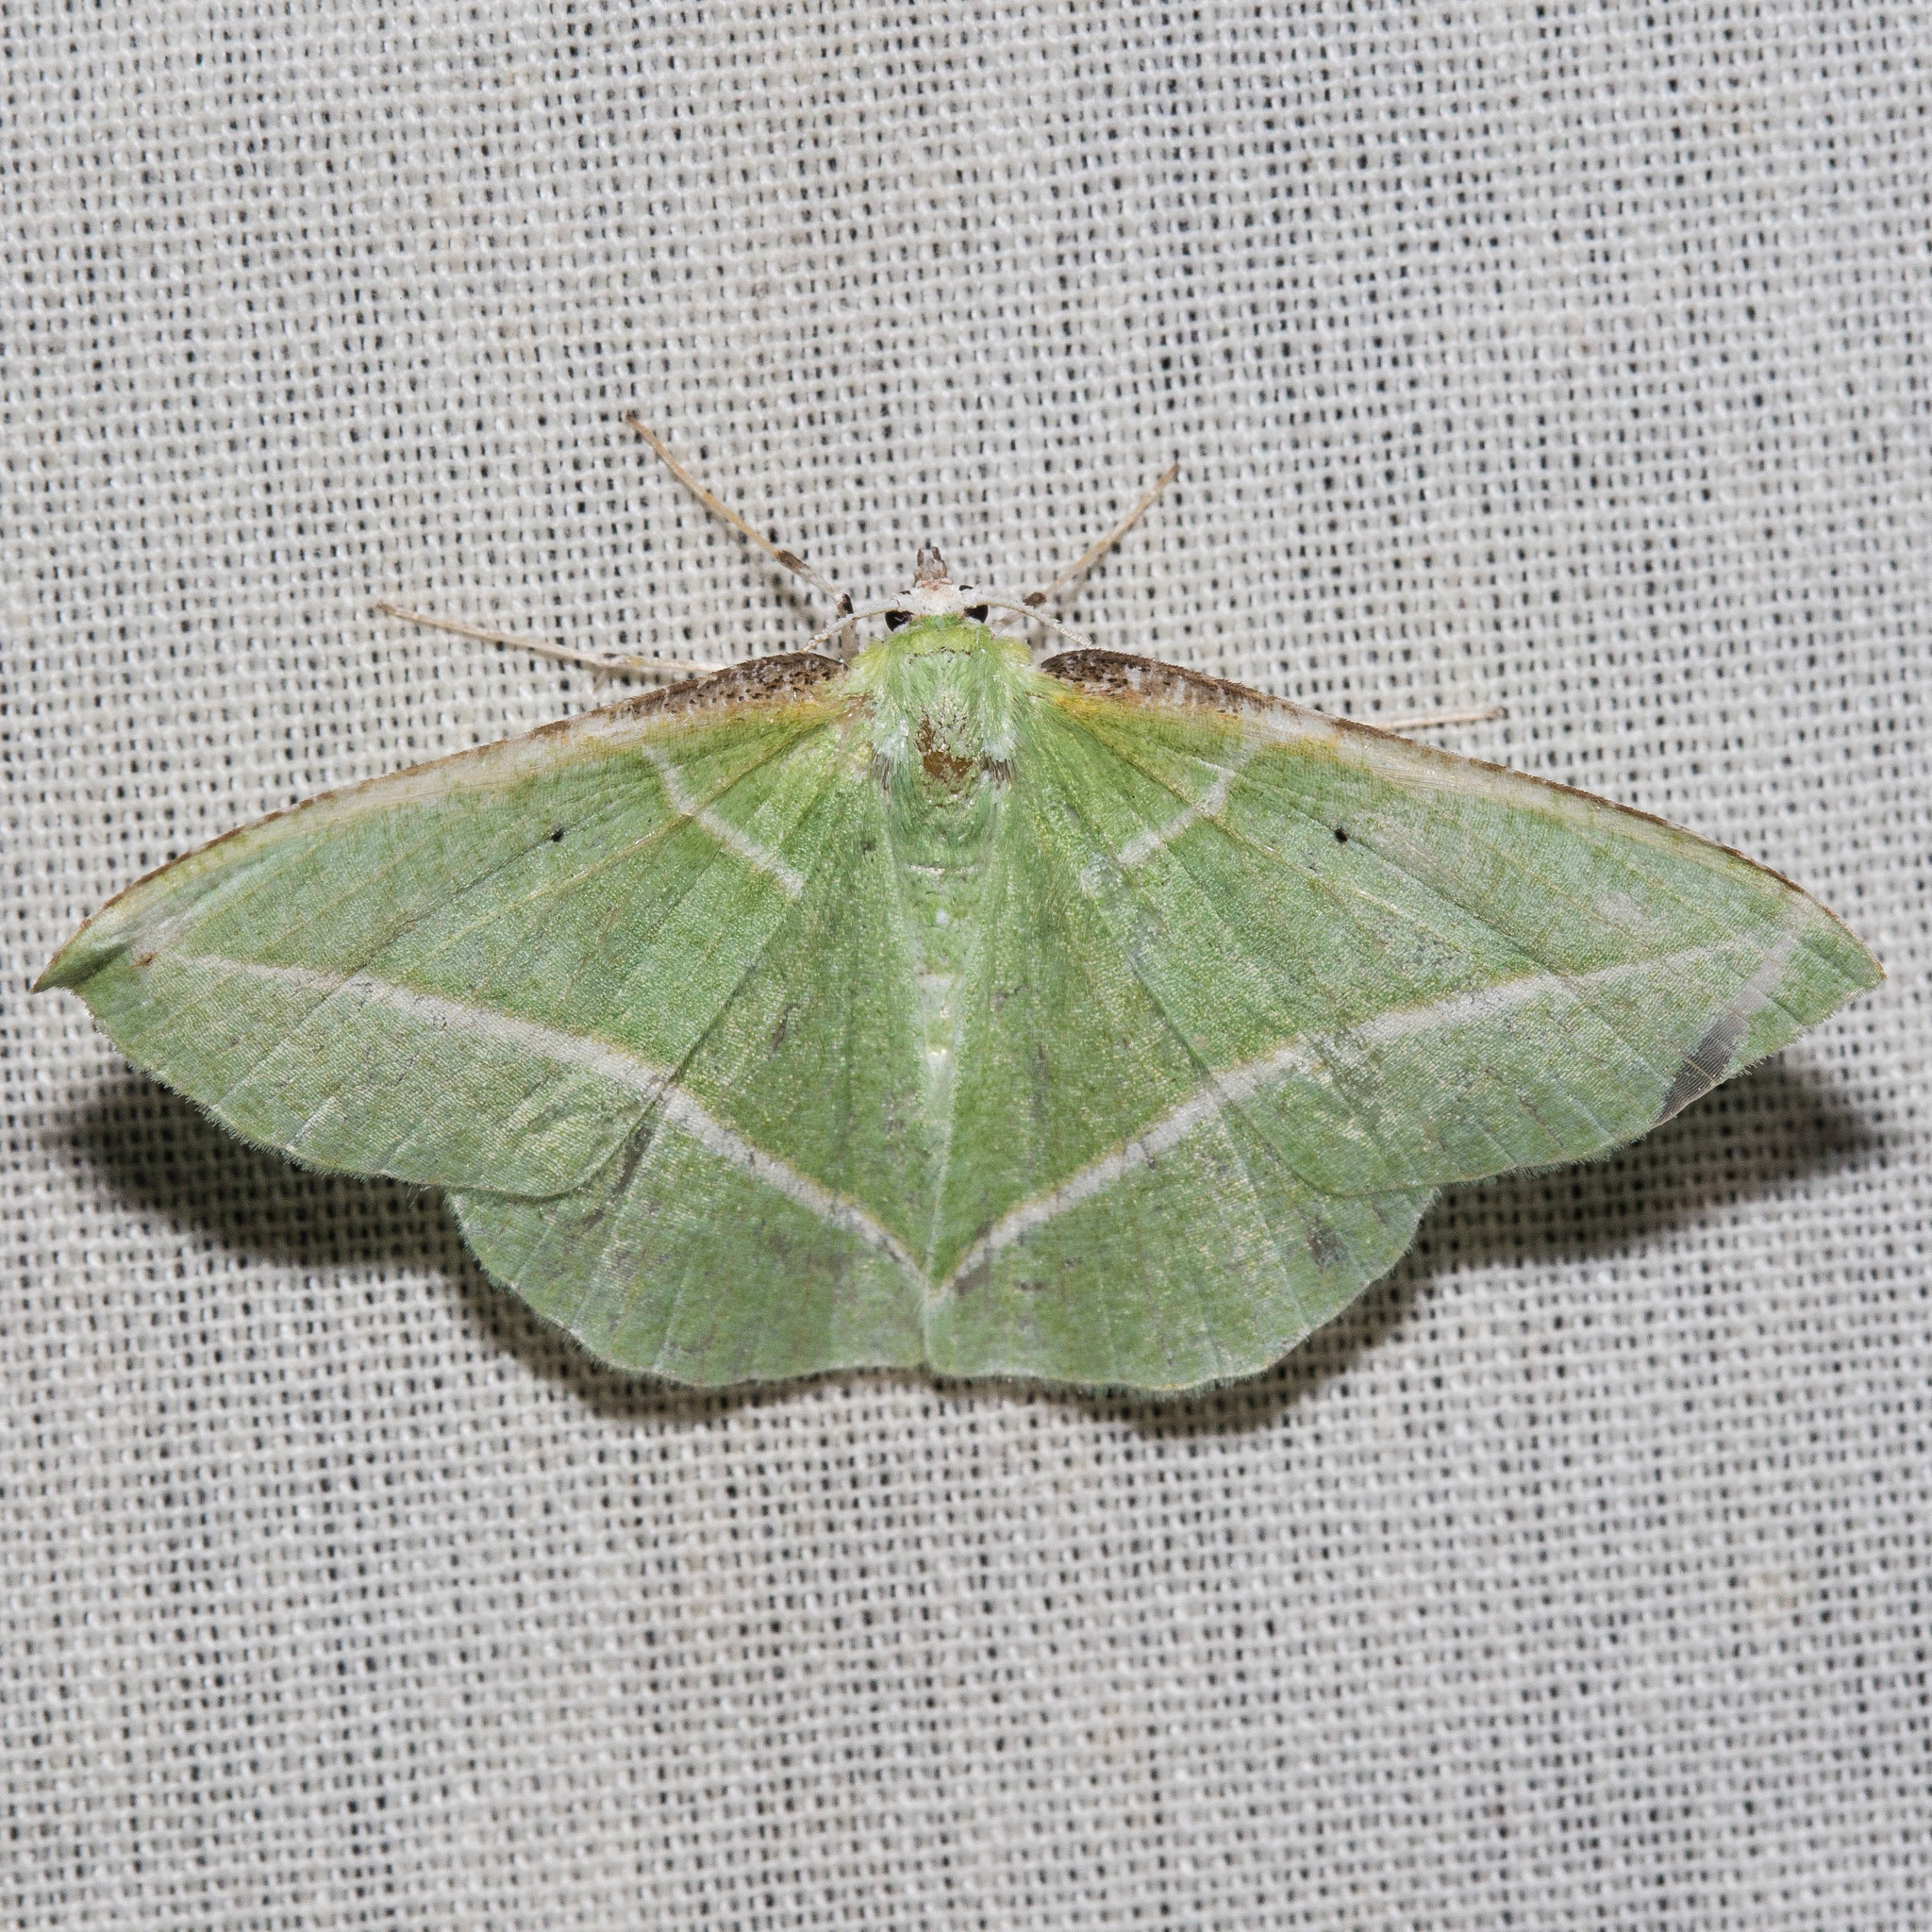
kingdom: Animalia
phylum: Arthropoda
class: Insecta
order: Lepidoptera
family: Geometridae
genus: Dichorda
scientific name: Dichorda illustraria
